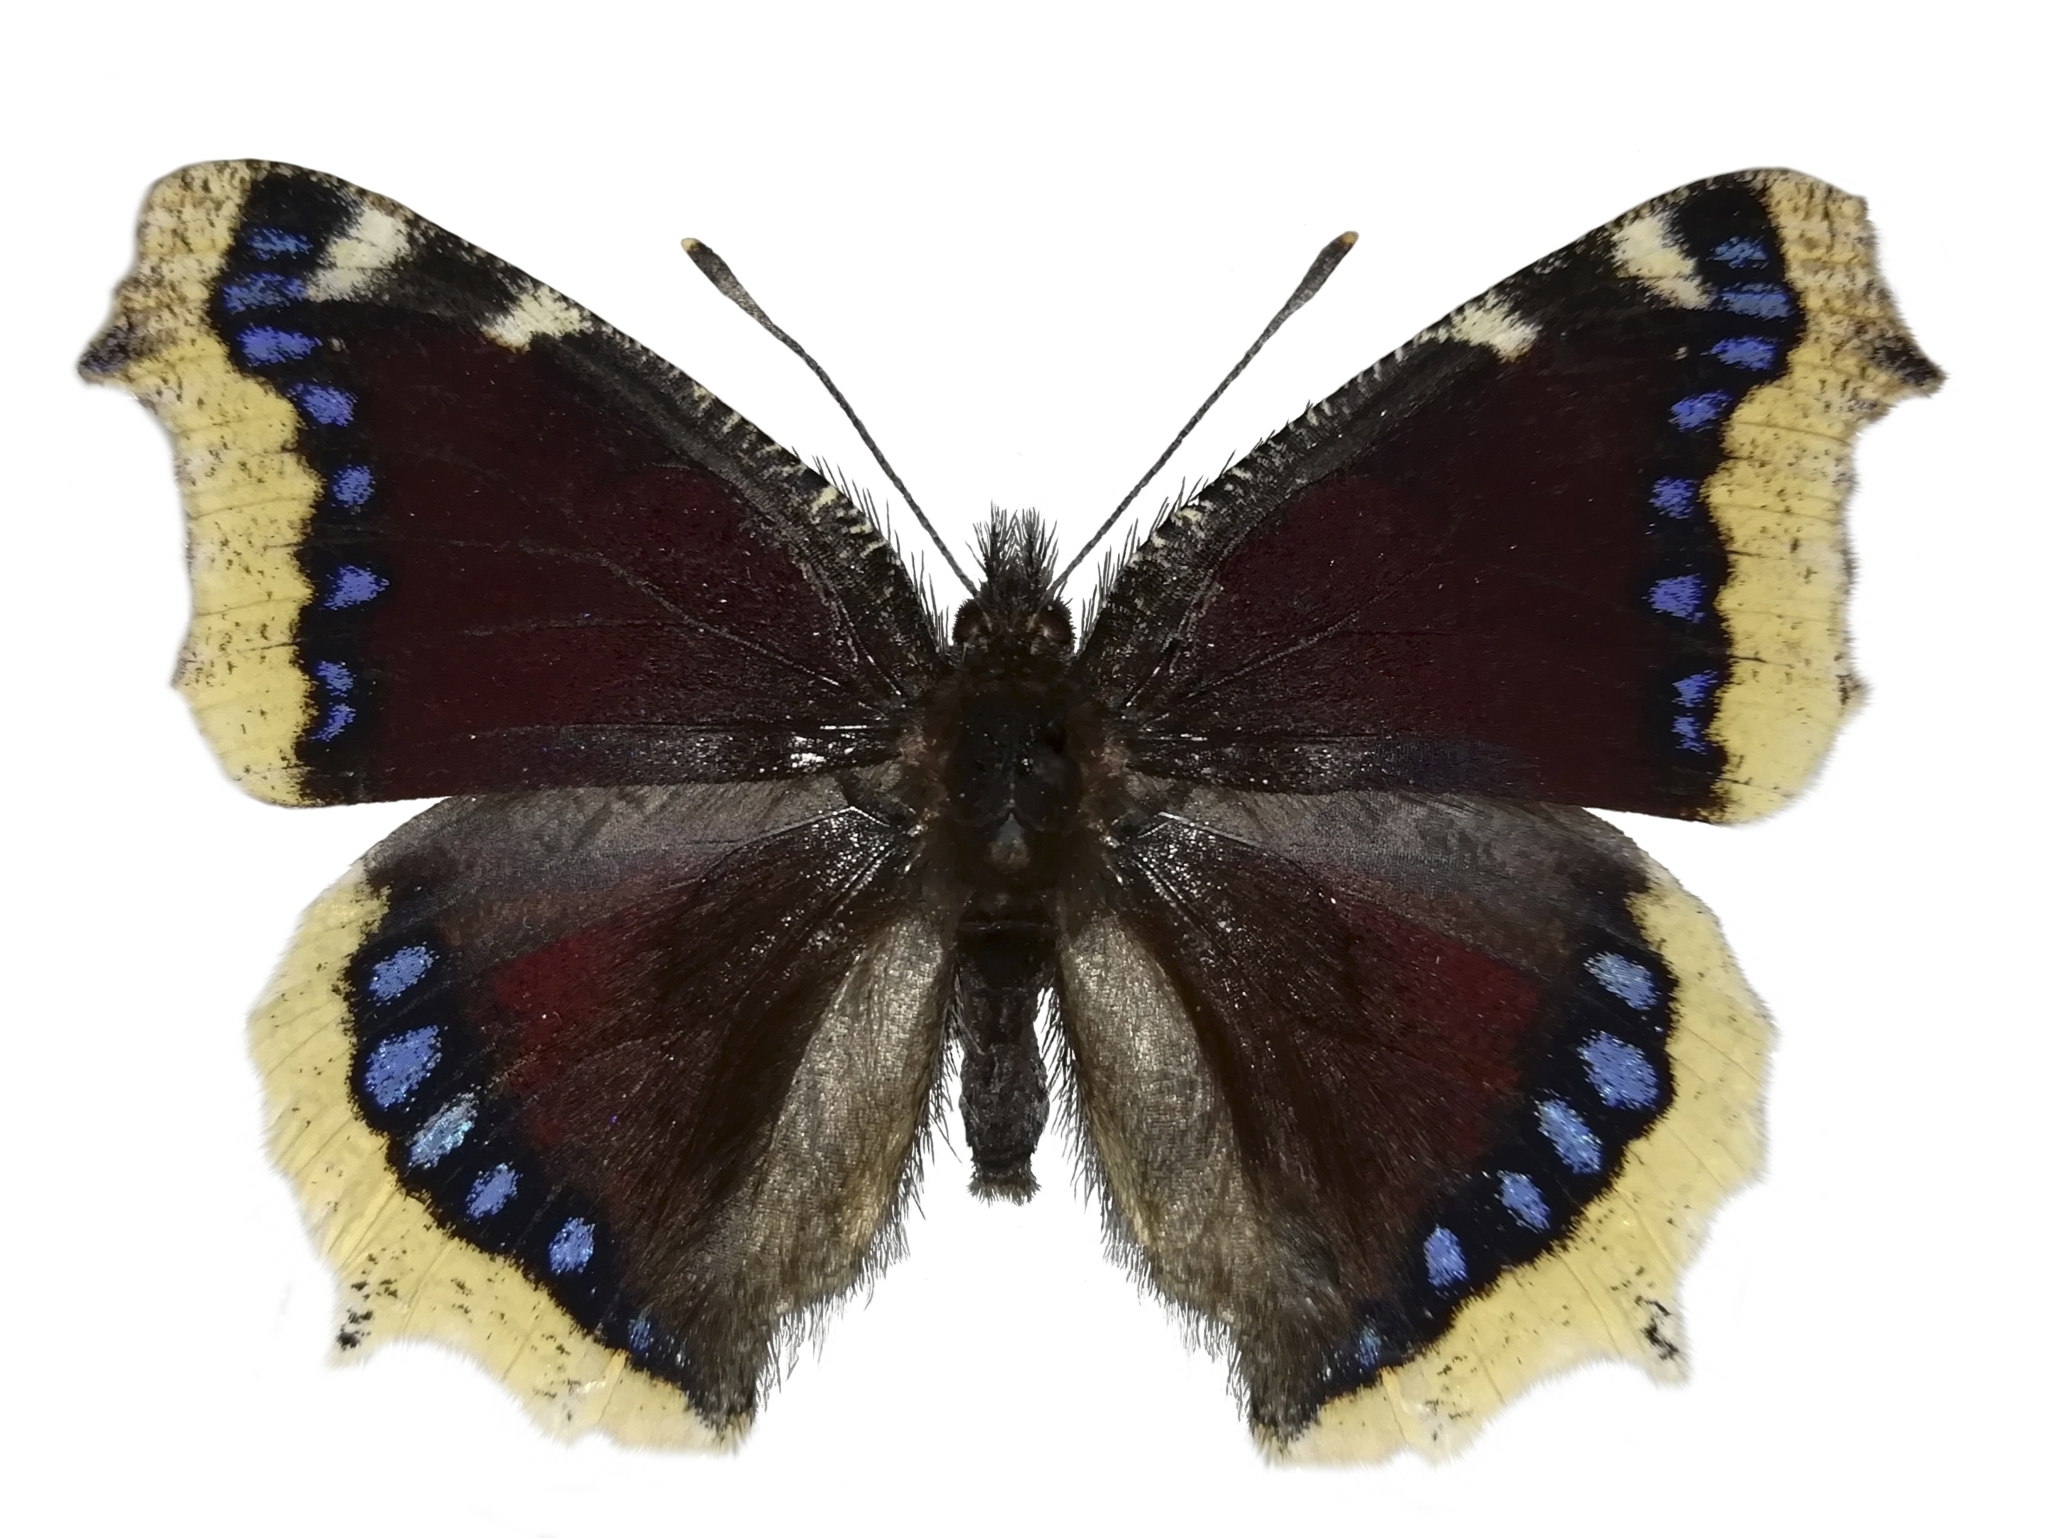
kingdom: Animalia
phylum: Arthropoda
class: Insecta
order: Lepidoptera
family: Nymphalidae
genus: Nymphalis
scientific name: Nymphalis antiopa
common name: Camberwell beauty
